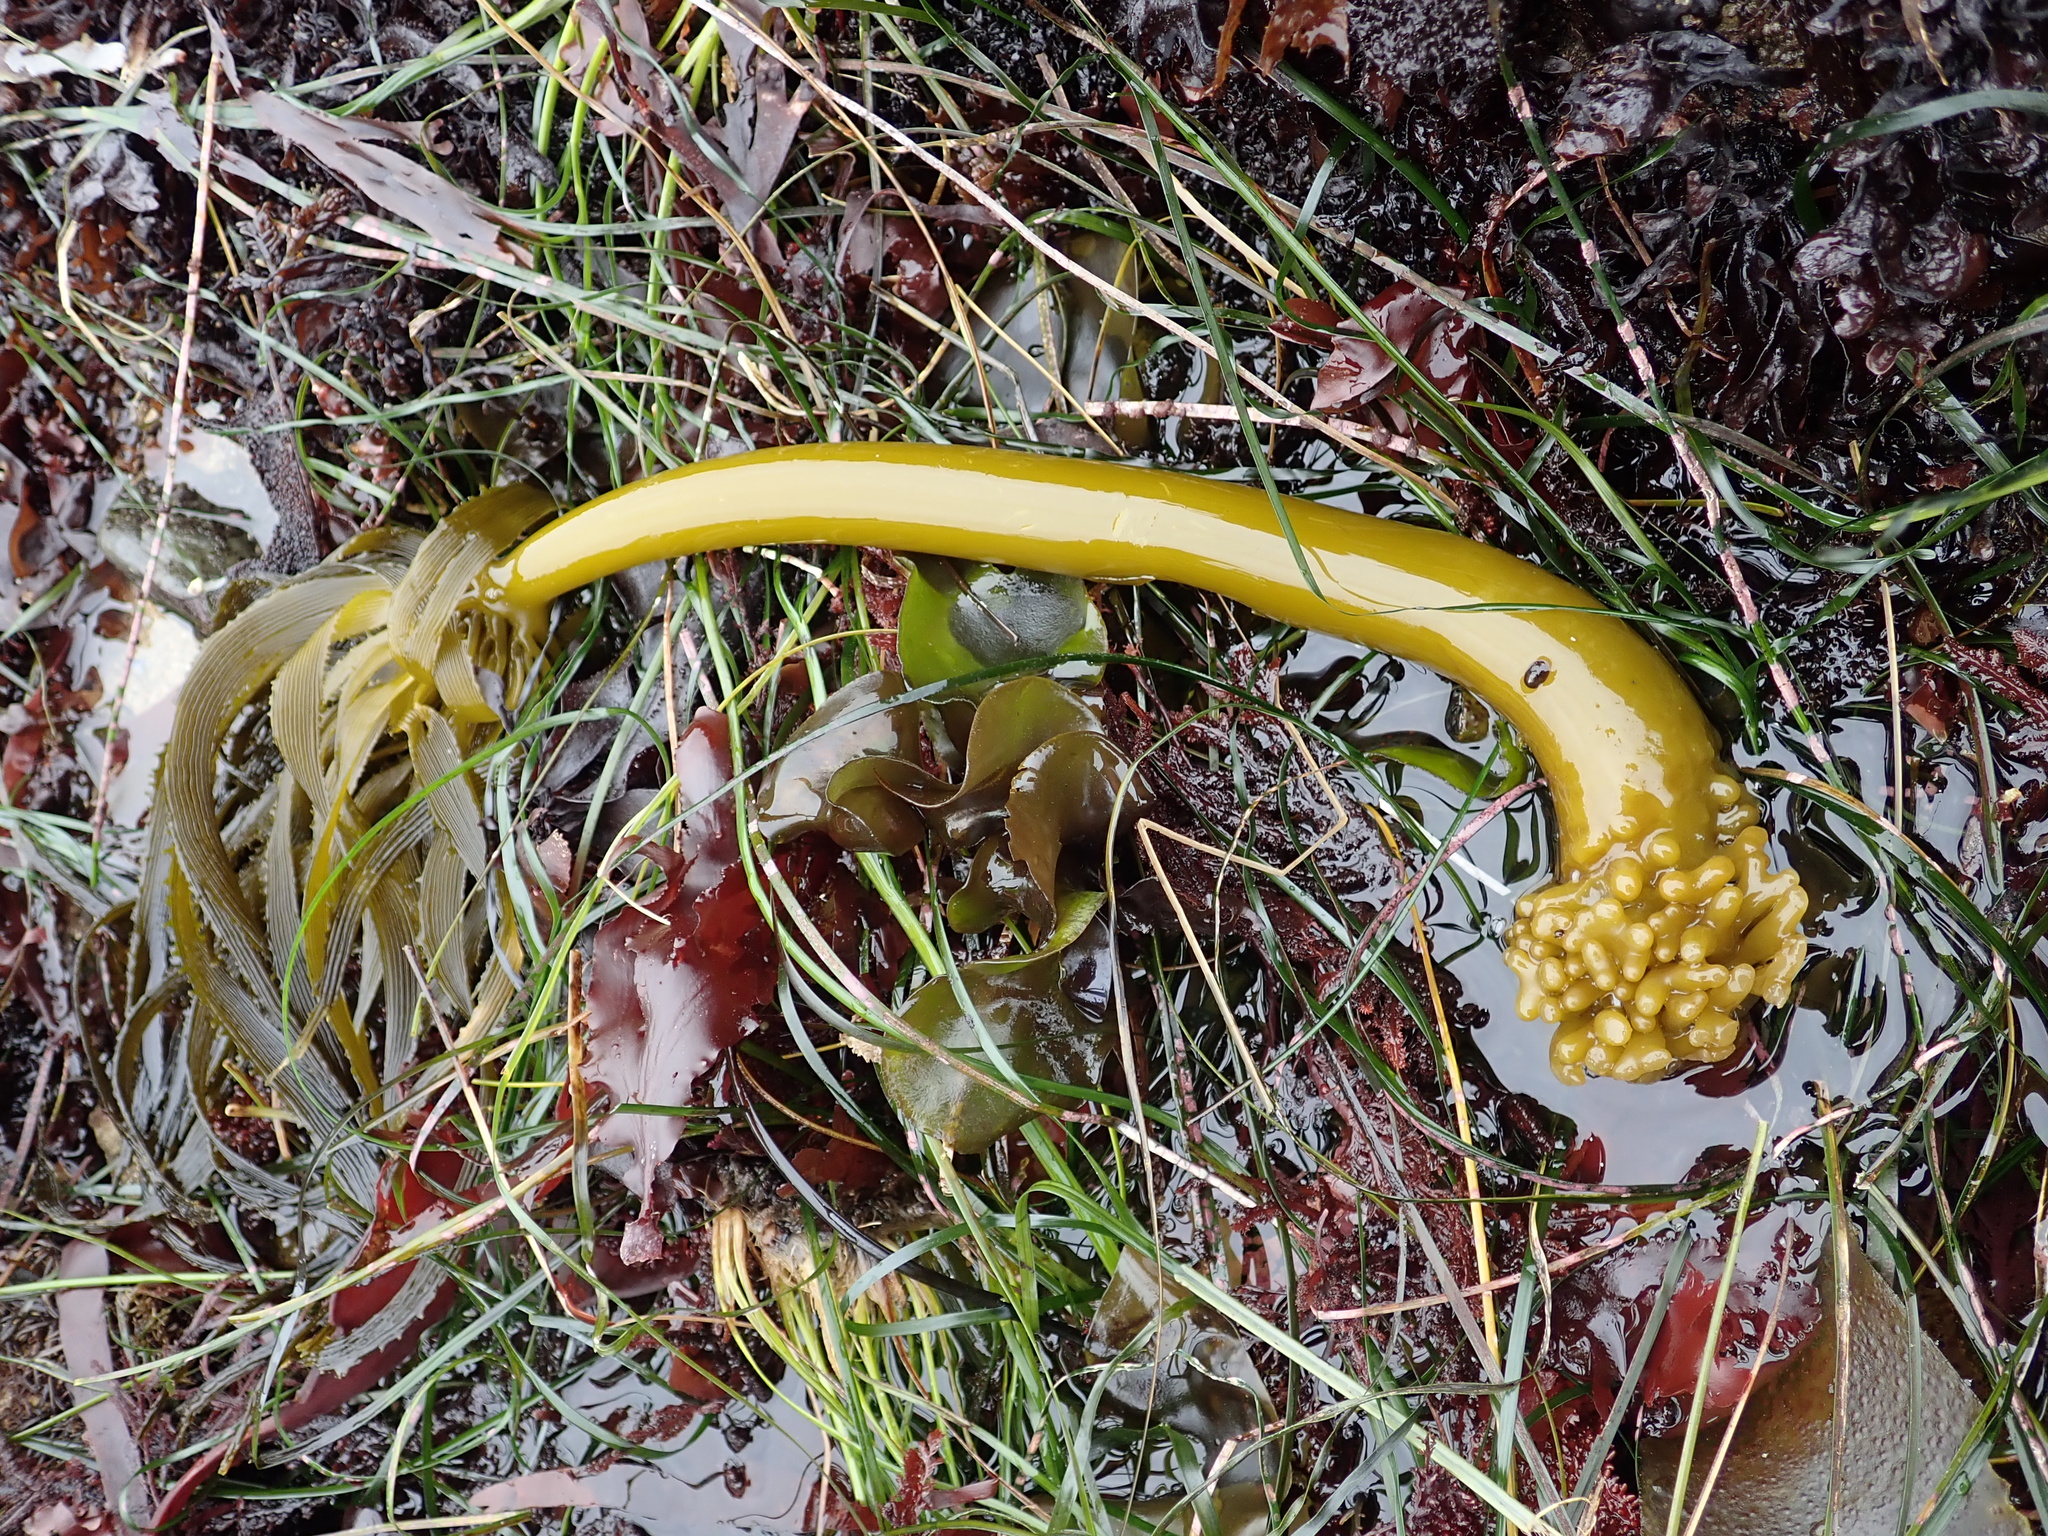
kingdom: Chromista
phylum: Ochrophyta
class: Phaeophyceae
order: Laminariales
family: Laminariaceae
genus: Postelsia
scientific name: Postelsia palmiformis
